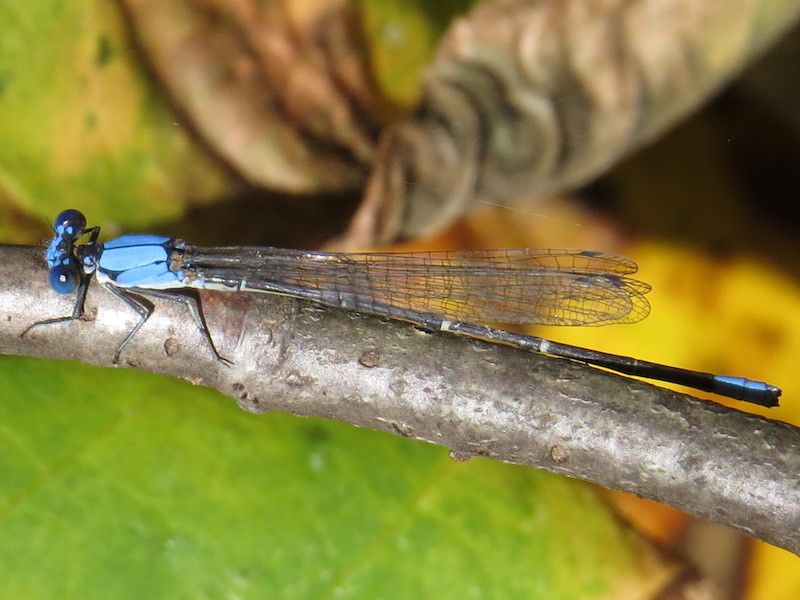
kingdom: Animalia
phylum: Arthropoda
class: Insecta
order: Odonata
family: Coenagrionidae
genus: Argia
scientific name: Argia apicalis
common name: Blue-fronted dancer
